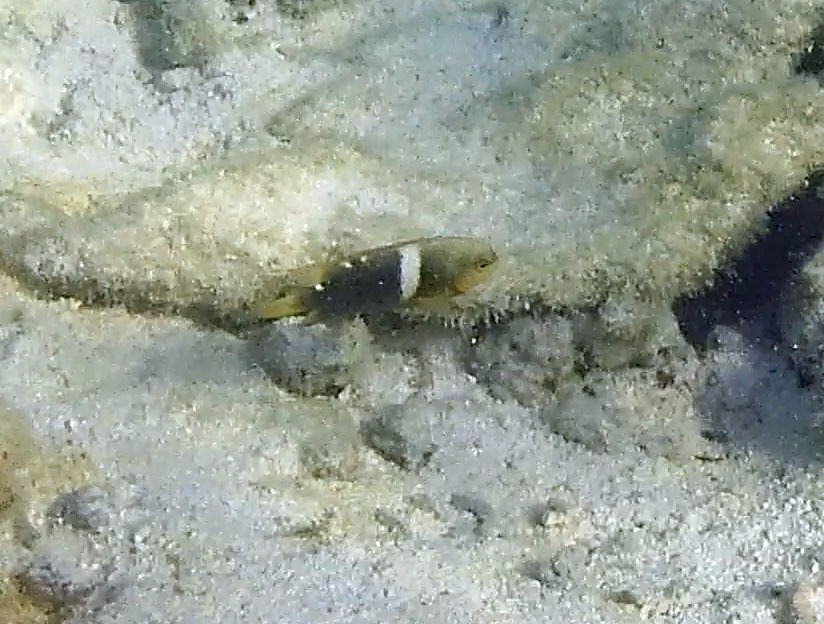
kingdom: Animalia
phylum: Chordata
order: Perciformes
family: Pomacentridae
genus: Chrysiptera
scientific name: Chrysiptera biocellata
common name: Twinspot damselfish
